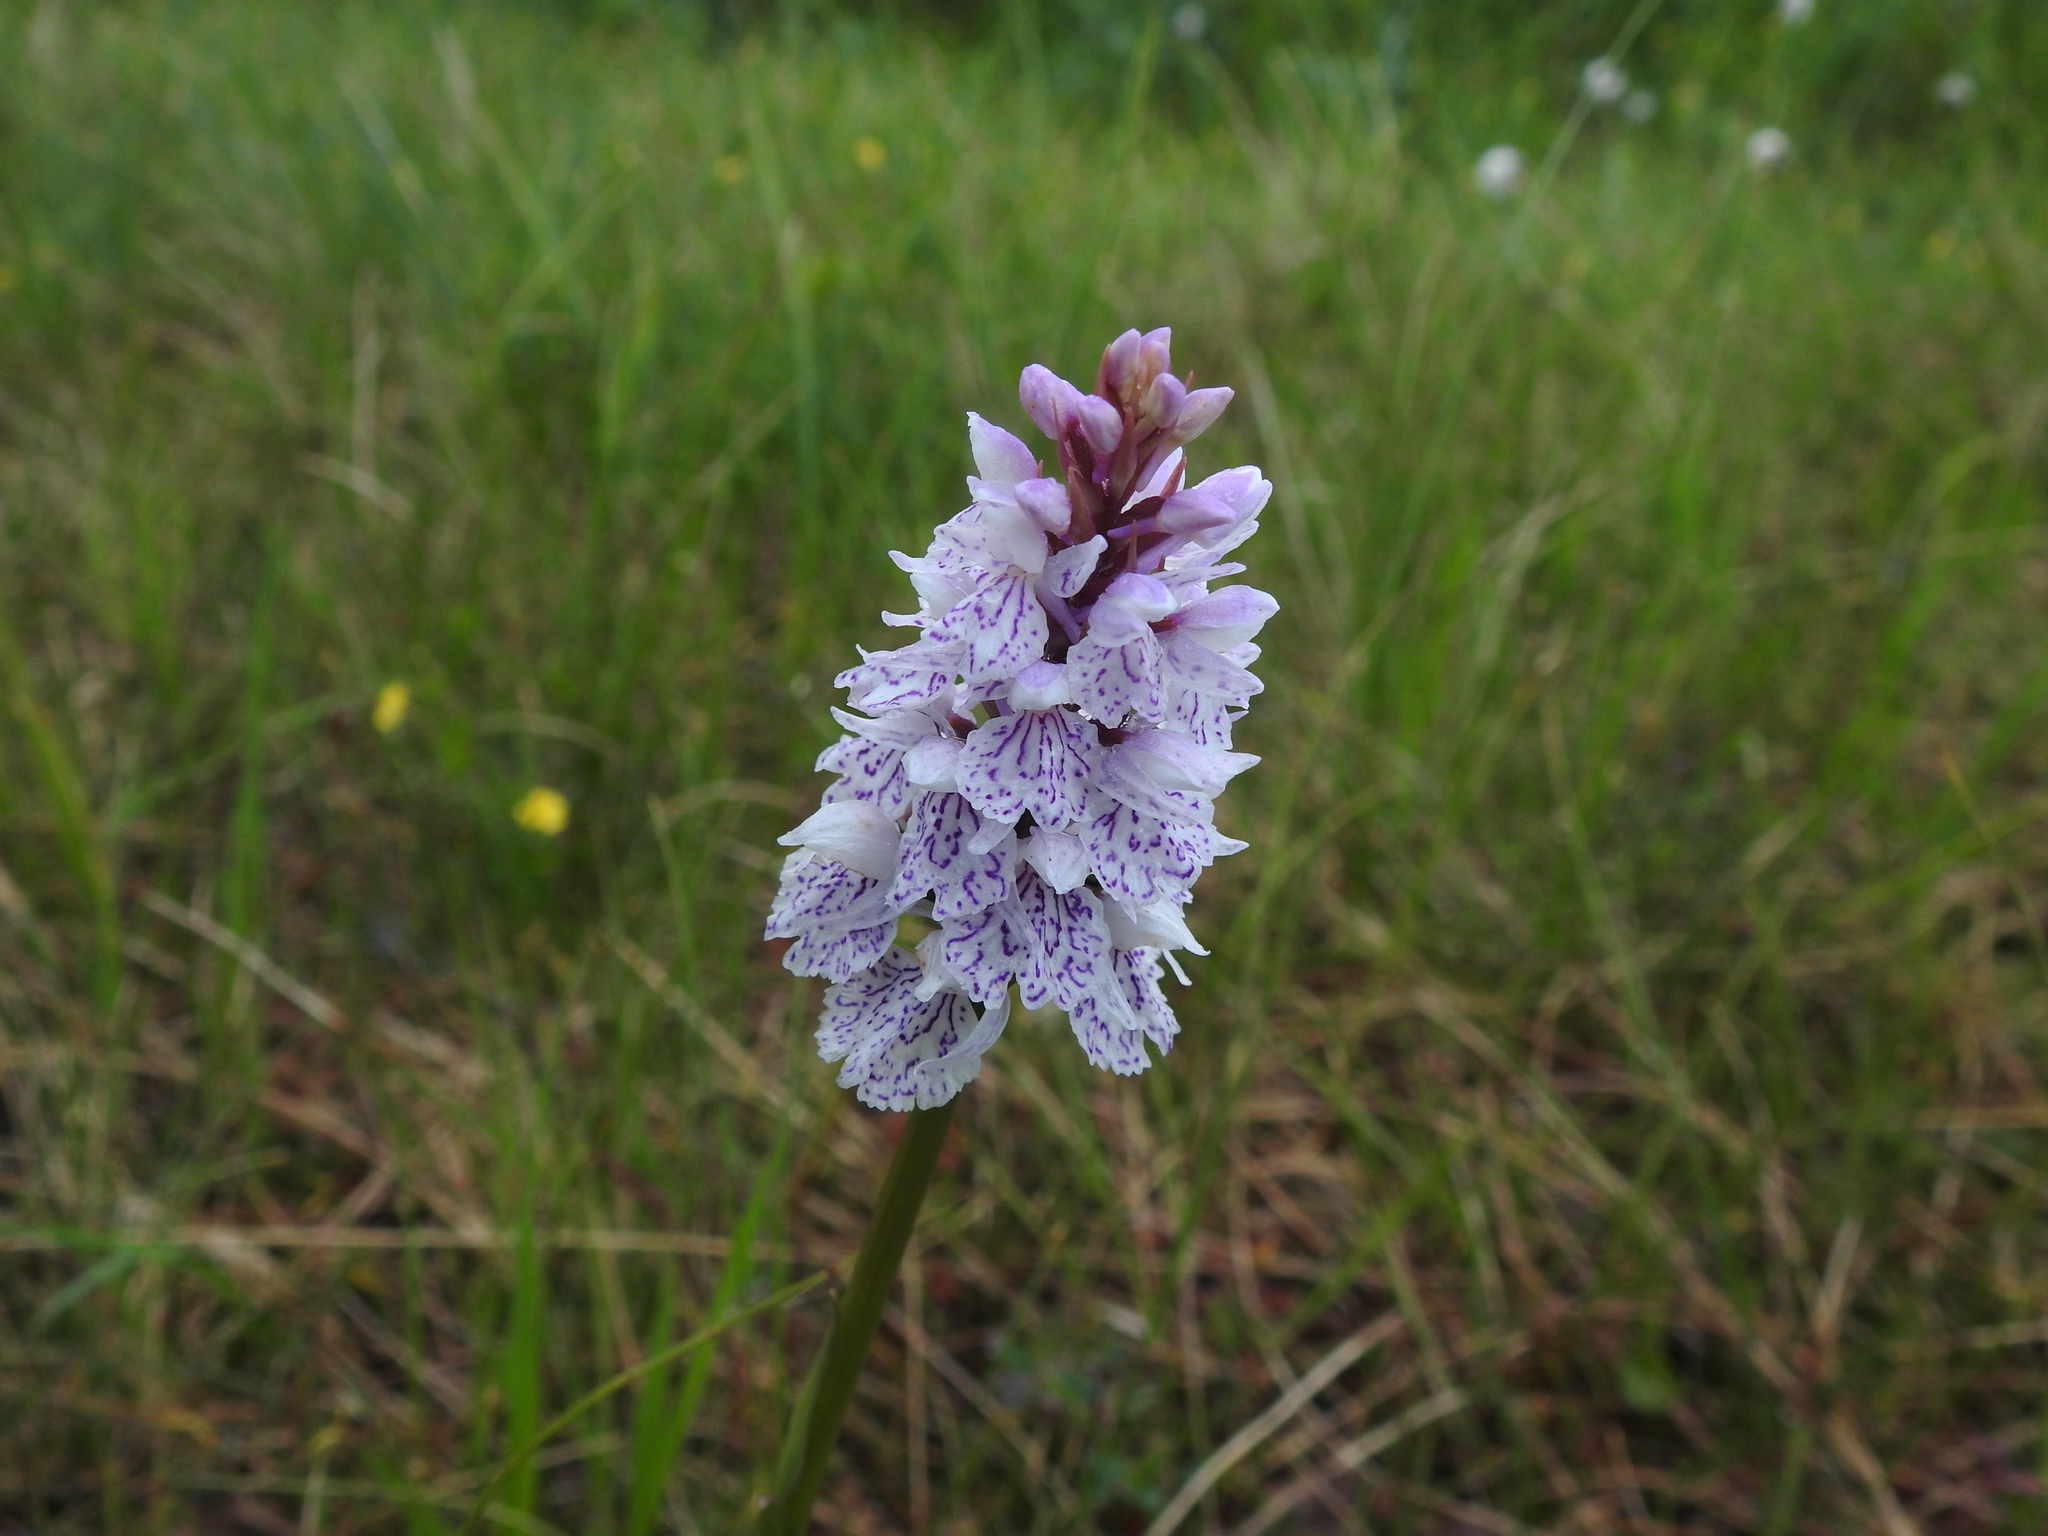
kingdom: Plantae
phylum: Tracheophyta
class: Liliopsida
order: Asparagales
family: Orchidaceae
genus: Dactylorhiza
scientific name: Dactylorhiza maculata
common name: Heath spotted-orchid
